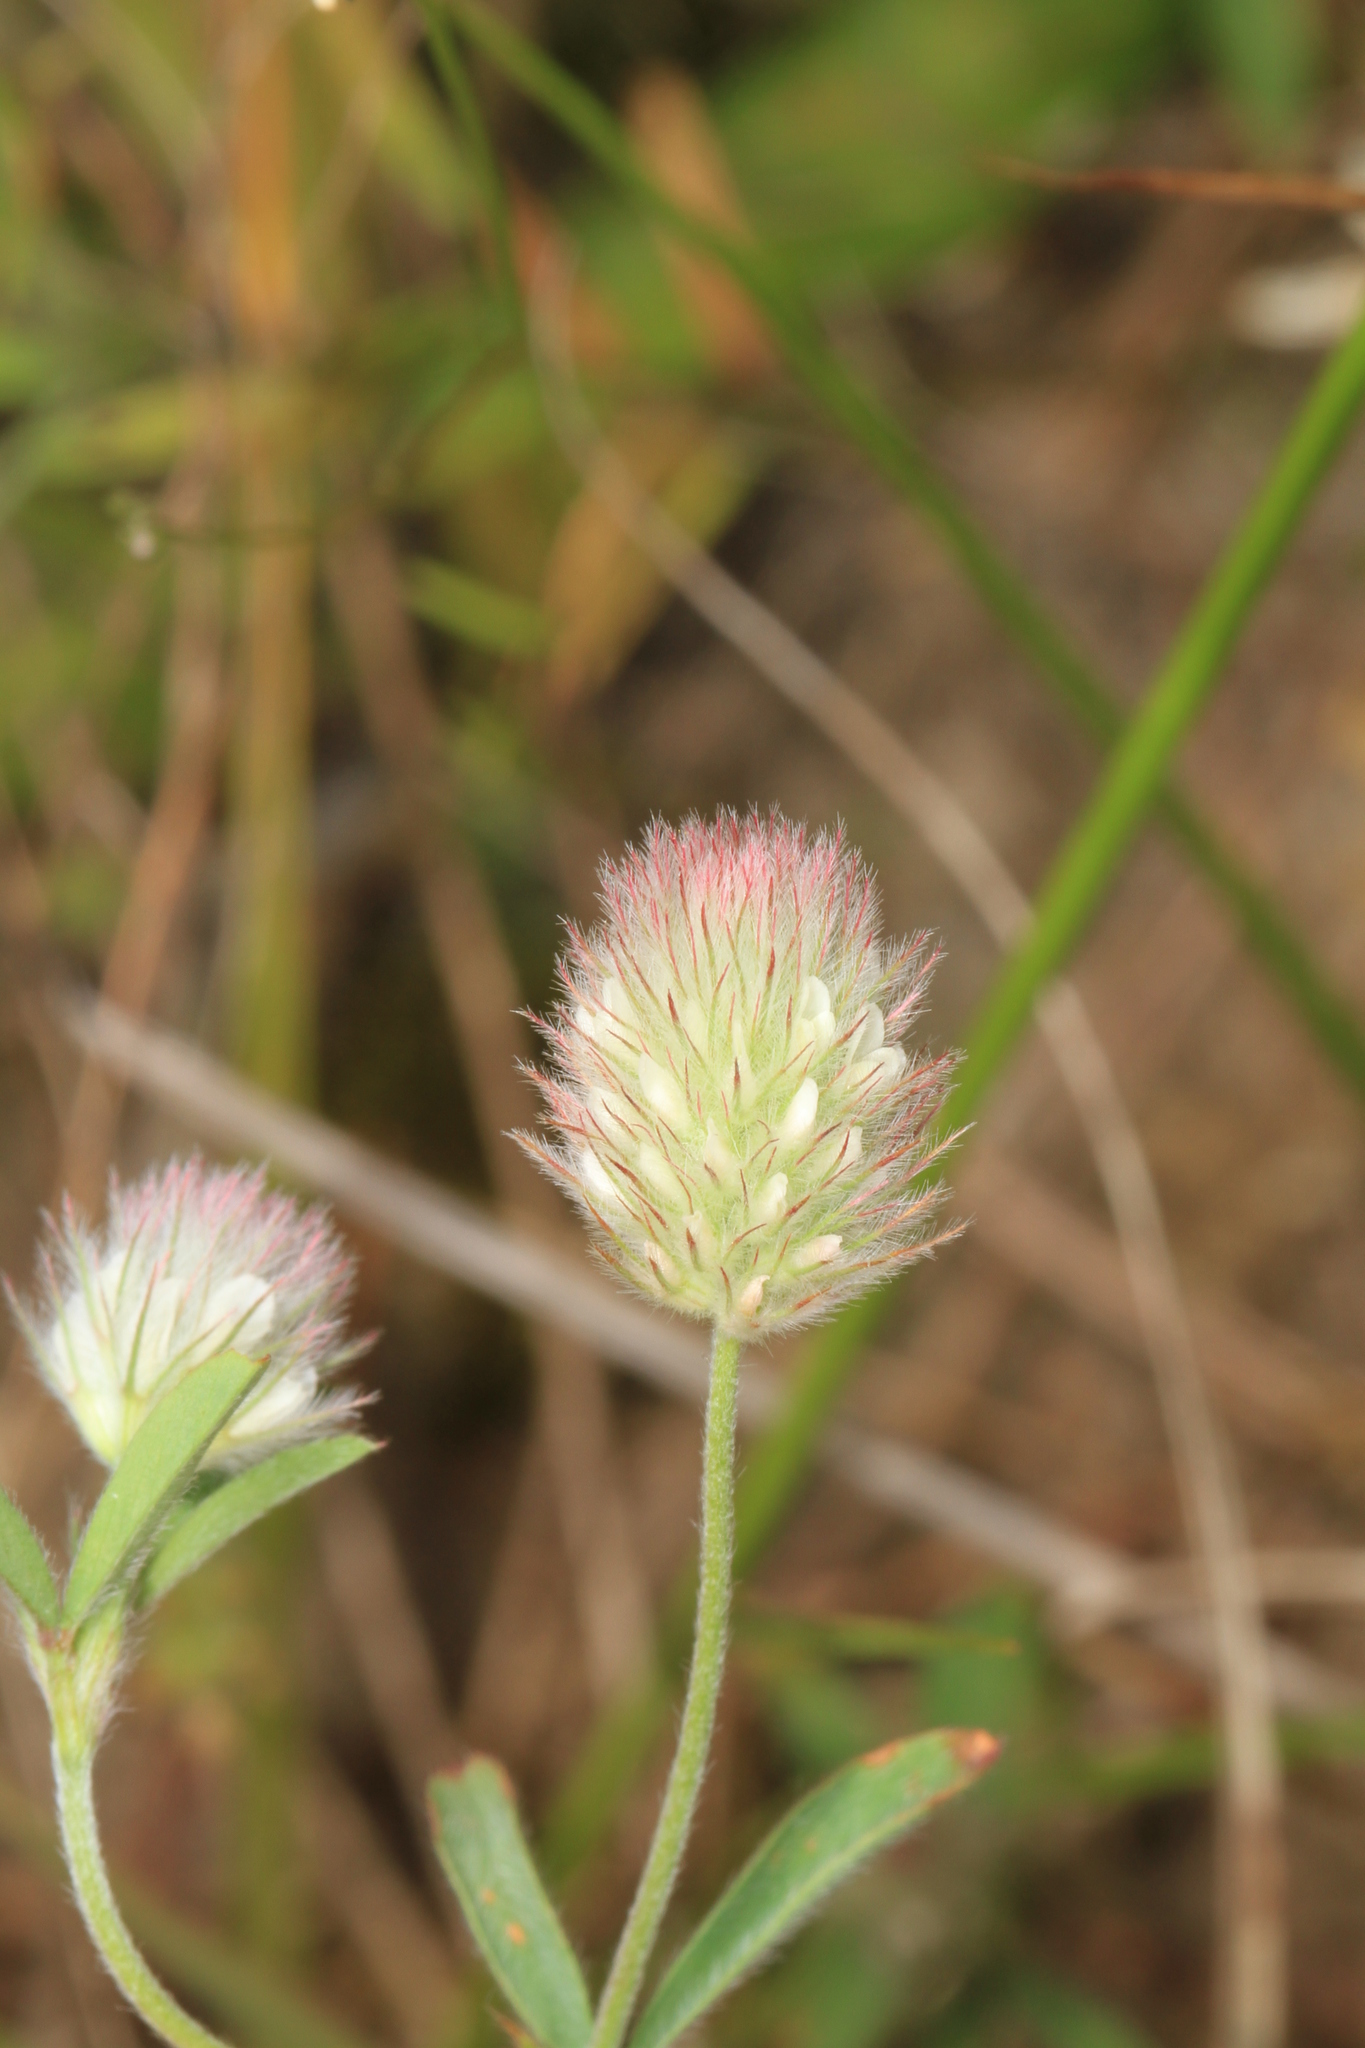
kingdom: Plantae
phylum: Tracheophyta
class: Magnoliopsida
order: Fabales
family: Fabaceae
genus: Trifolium
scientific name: Trifolium arvense
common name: Hare's-foot clover
